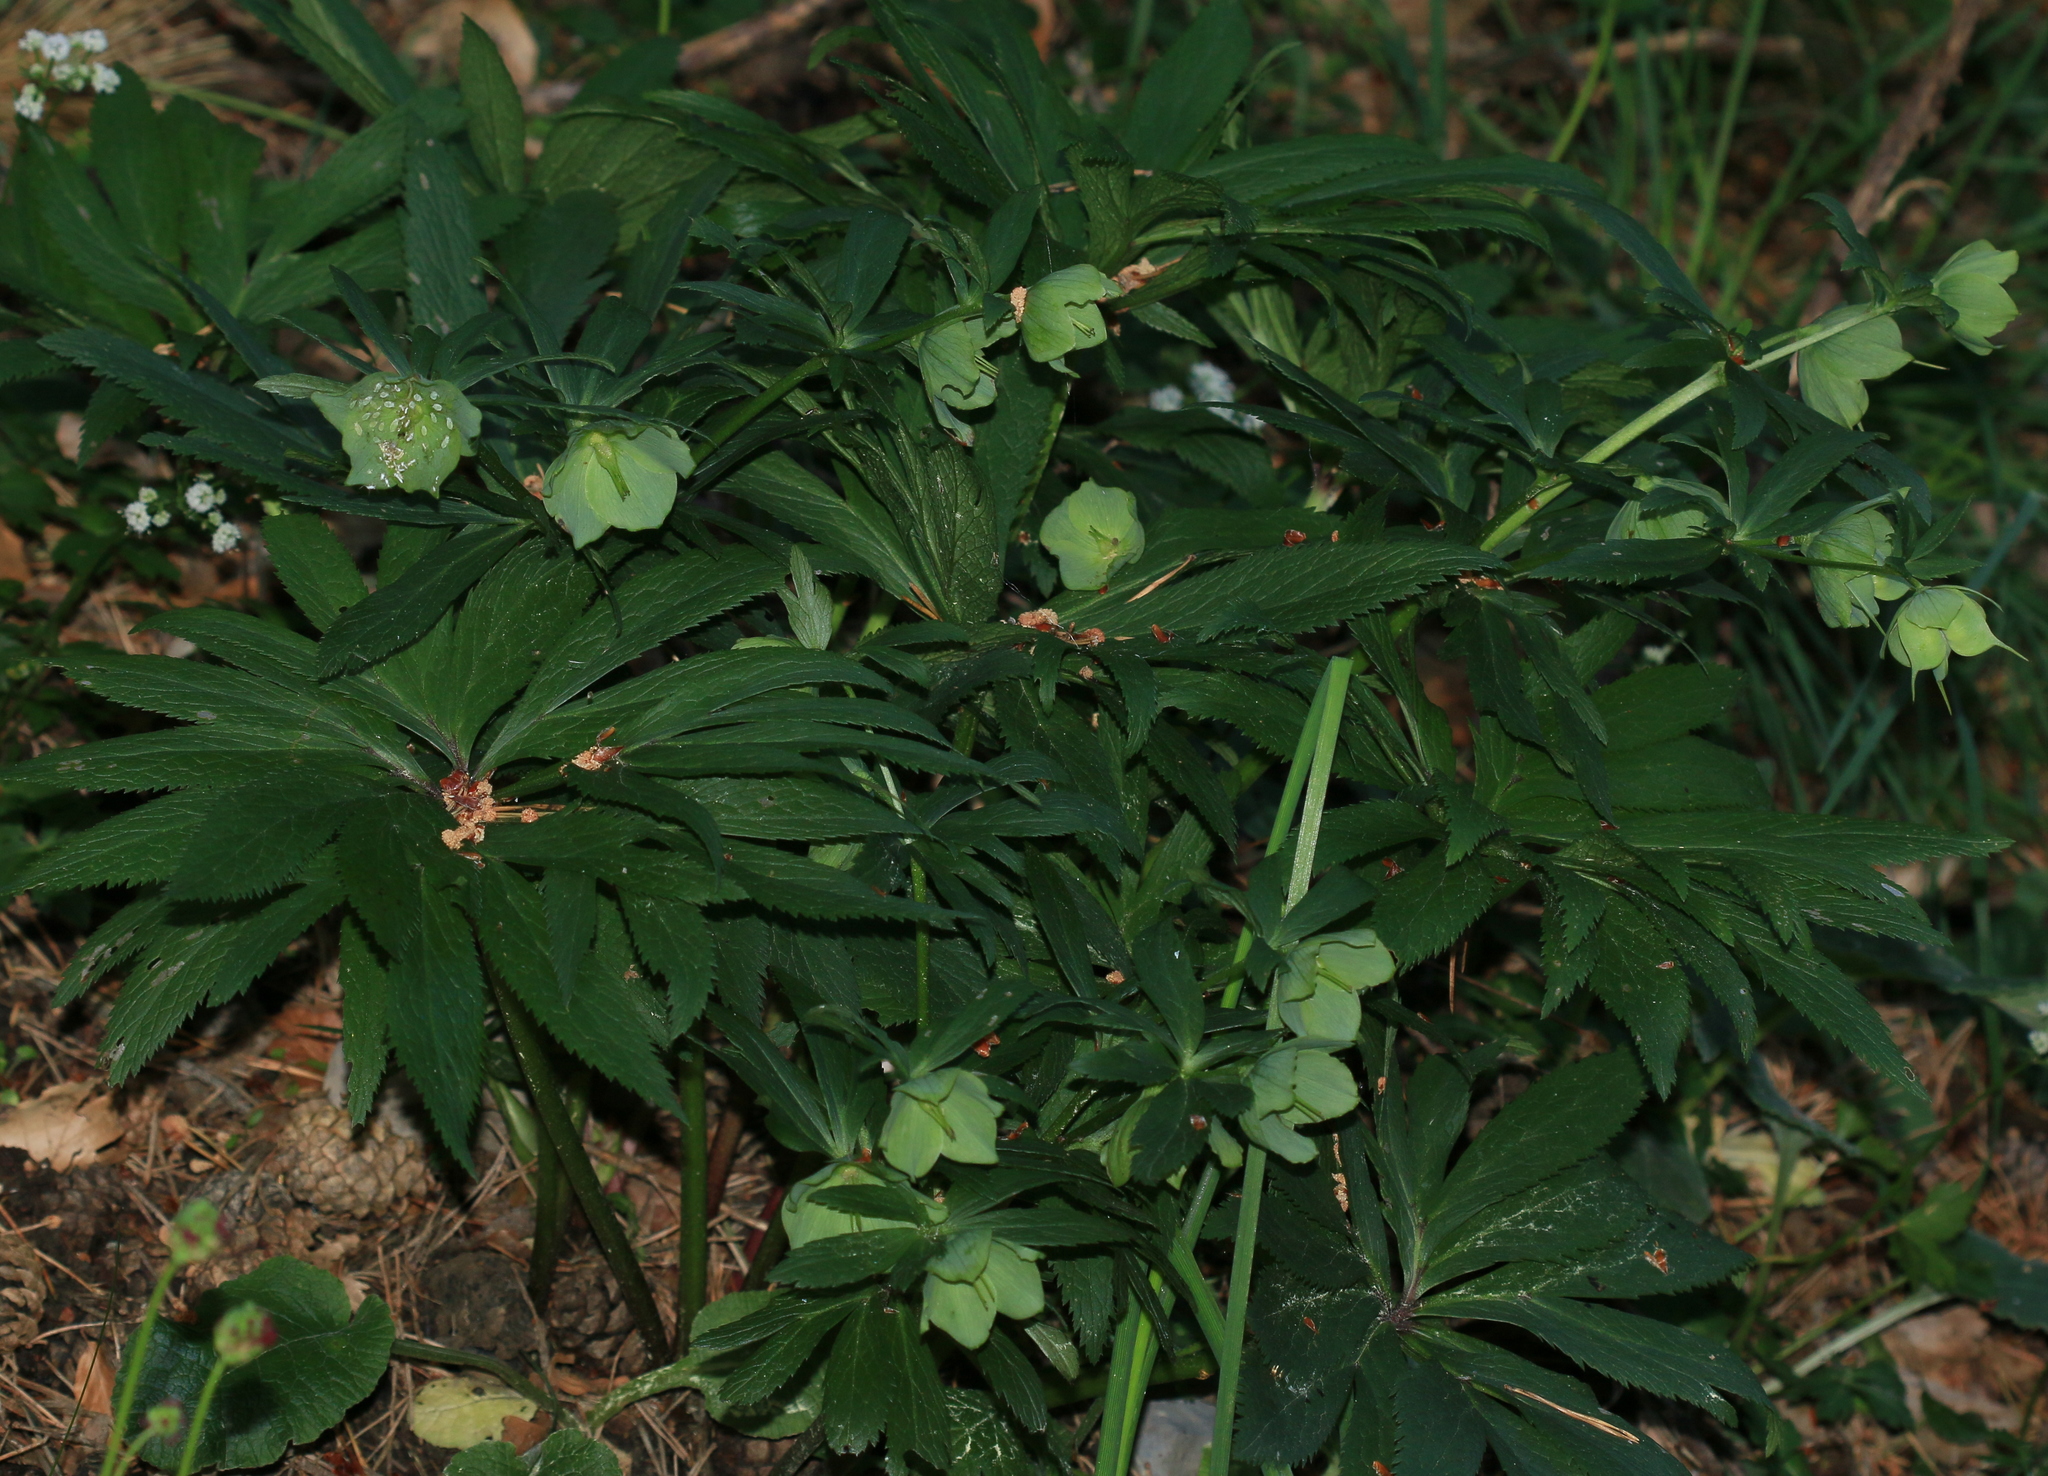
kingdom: Plantae
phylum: Tracheophyta
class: Magnoliopsida
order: Ranunculales
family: Ranunculaceae
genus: Helleborus
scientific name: Helleborus viridis
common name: Green hellebore
